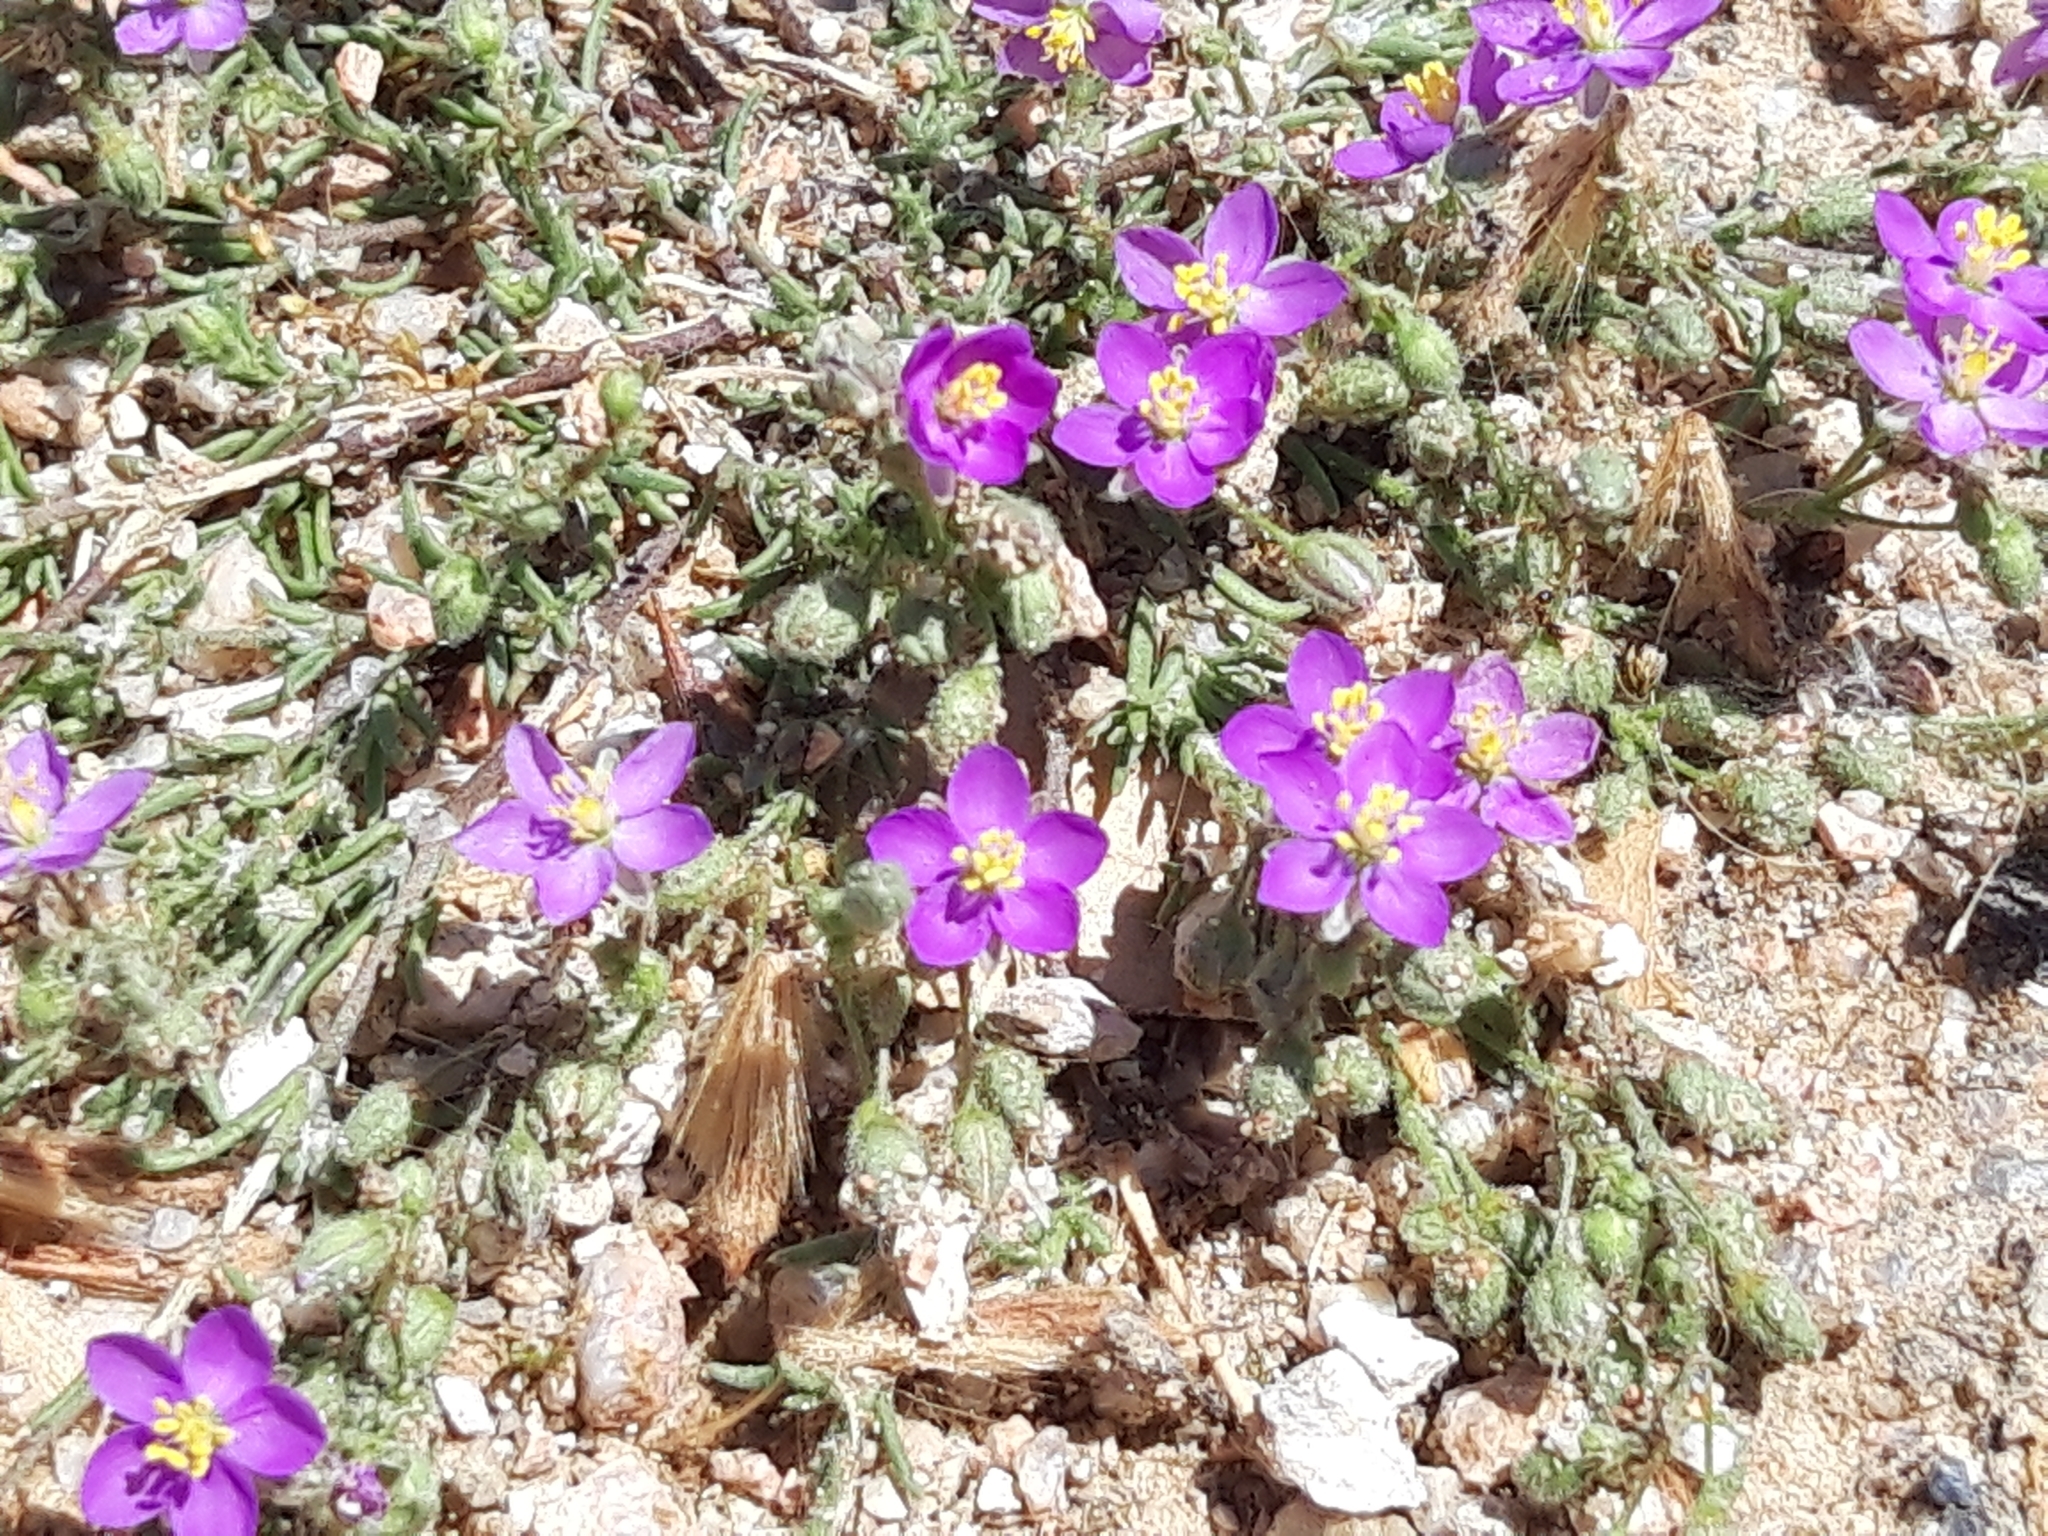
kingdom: Plantae
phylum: Tracheophyta
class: Magnoliopsida
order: Caryophyllales
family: Caryophyllaceae
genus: Spergularia
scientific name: Spergularia purpurea
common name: Purple sandspurry
